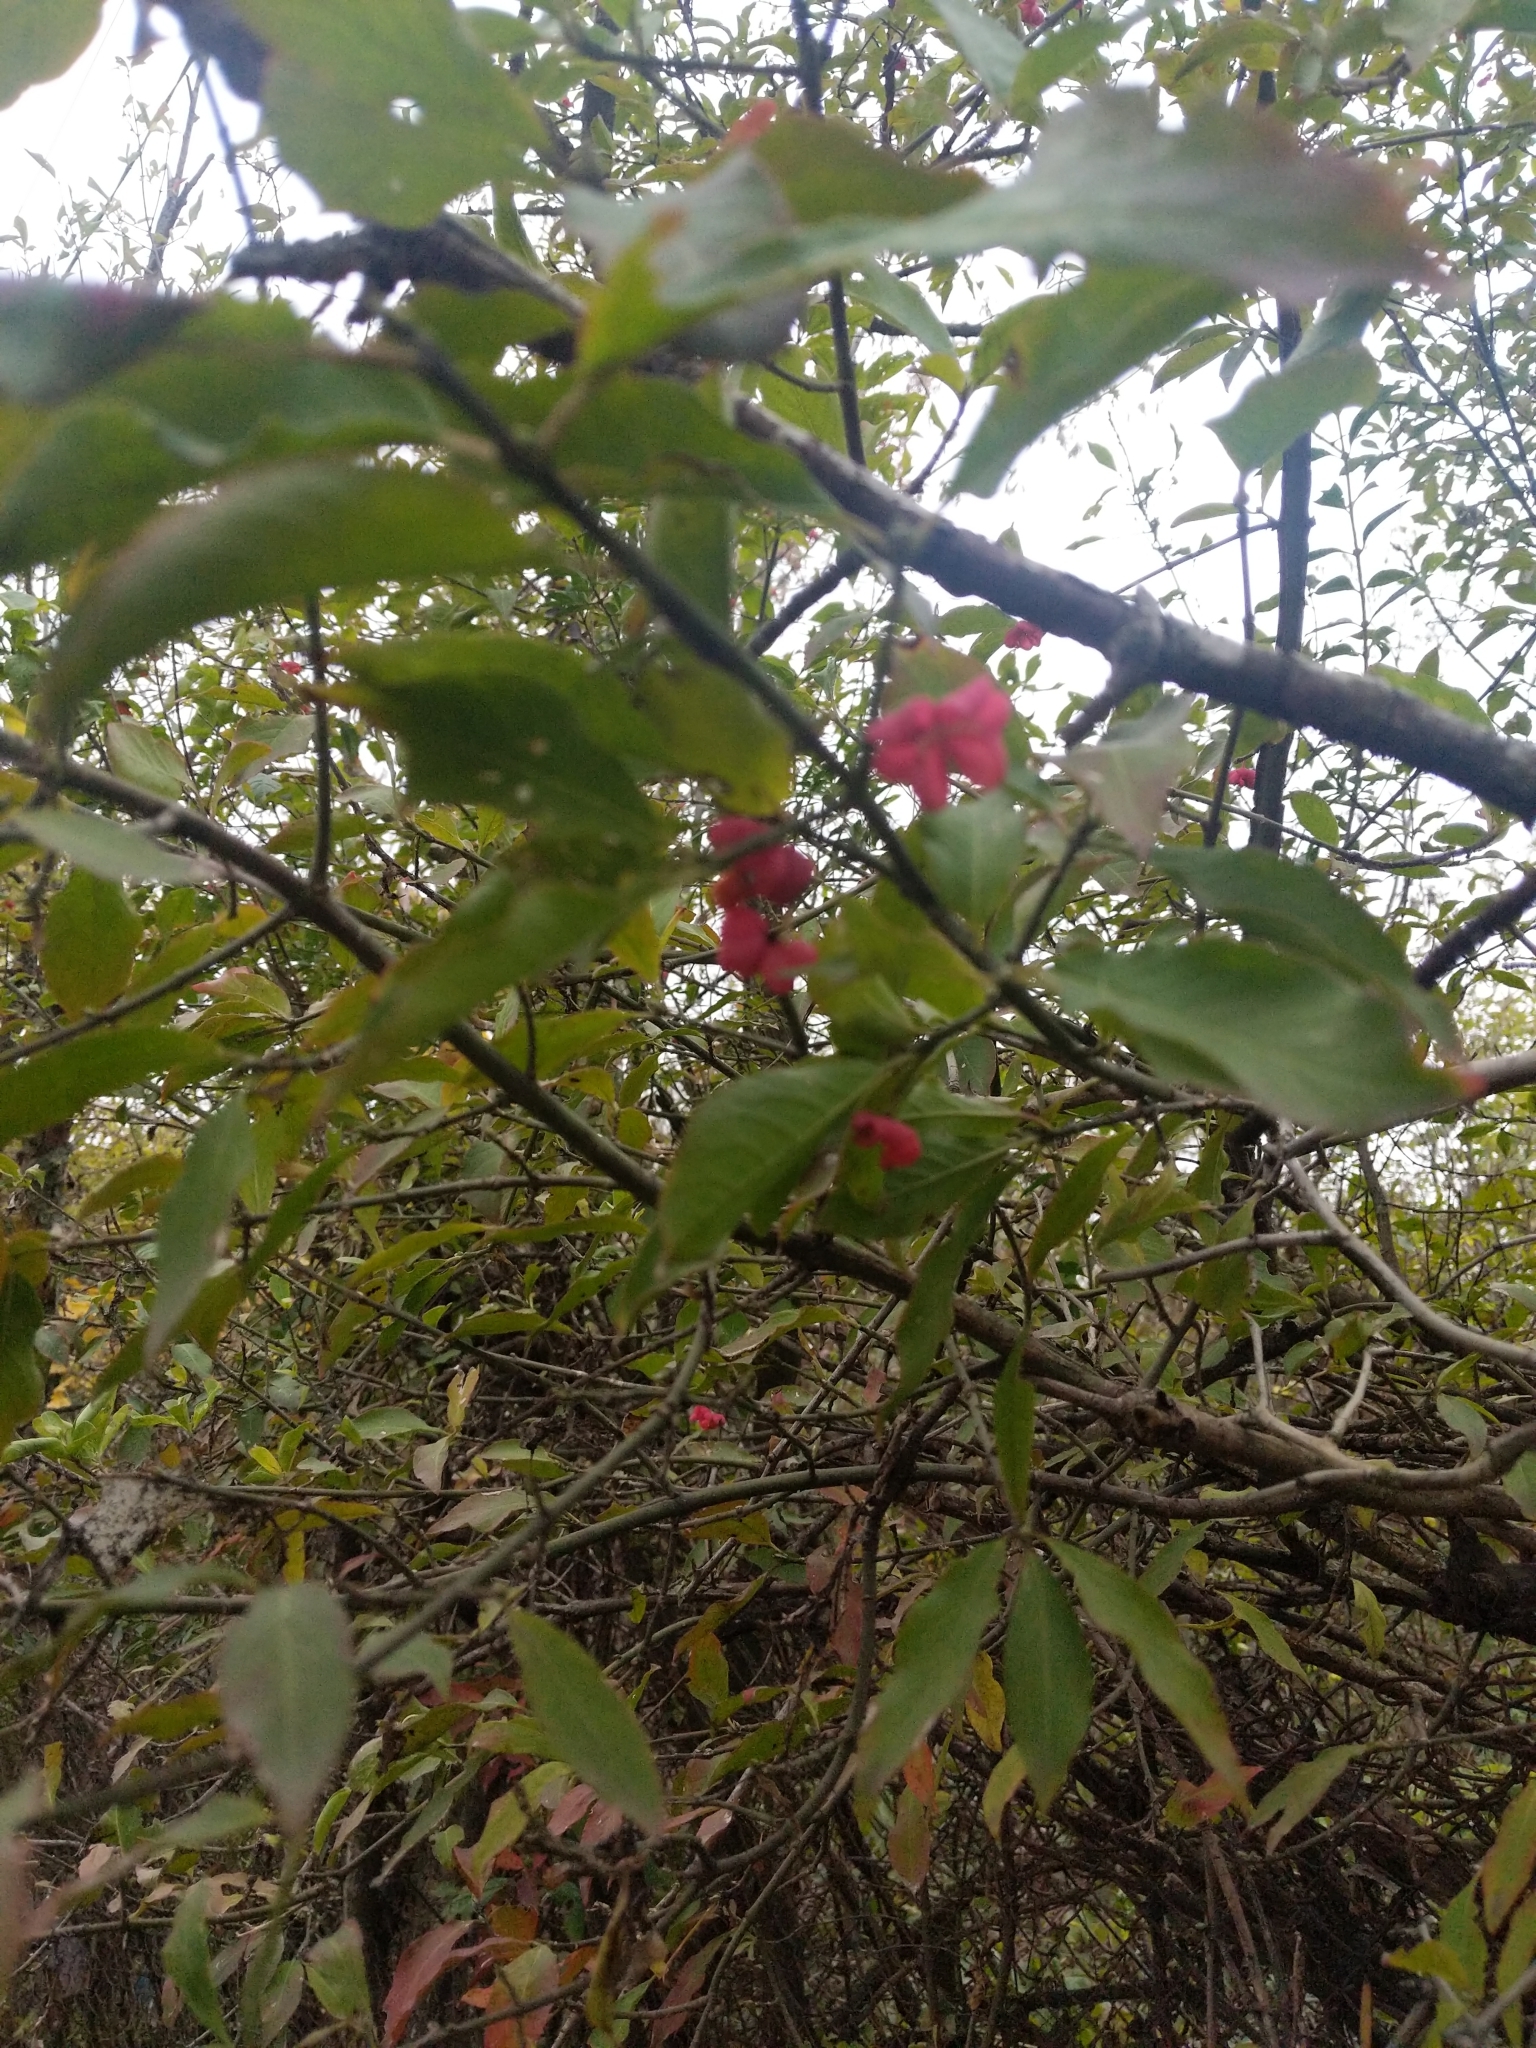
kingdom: Plantae
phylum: Tracheophyta
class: Magnoliopsida
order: Celastrales
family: Celastraceae
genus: Euonymus
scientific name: Euonymus europaeus
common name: Spindle
